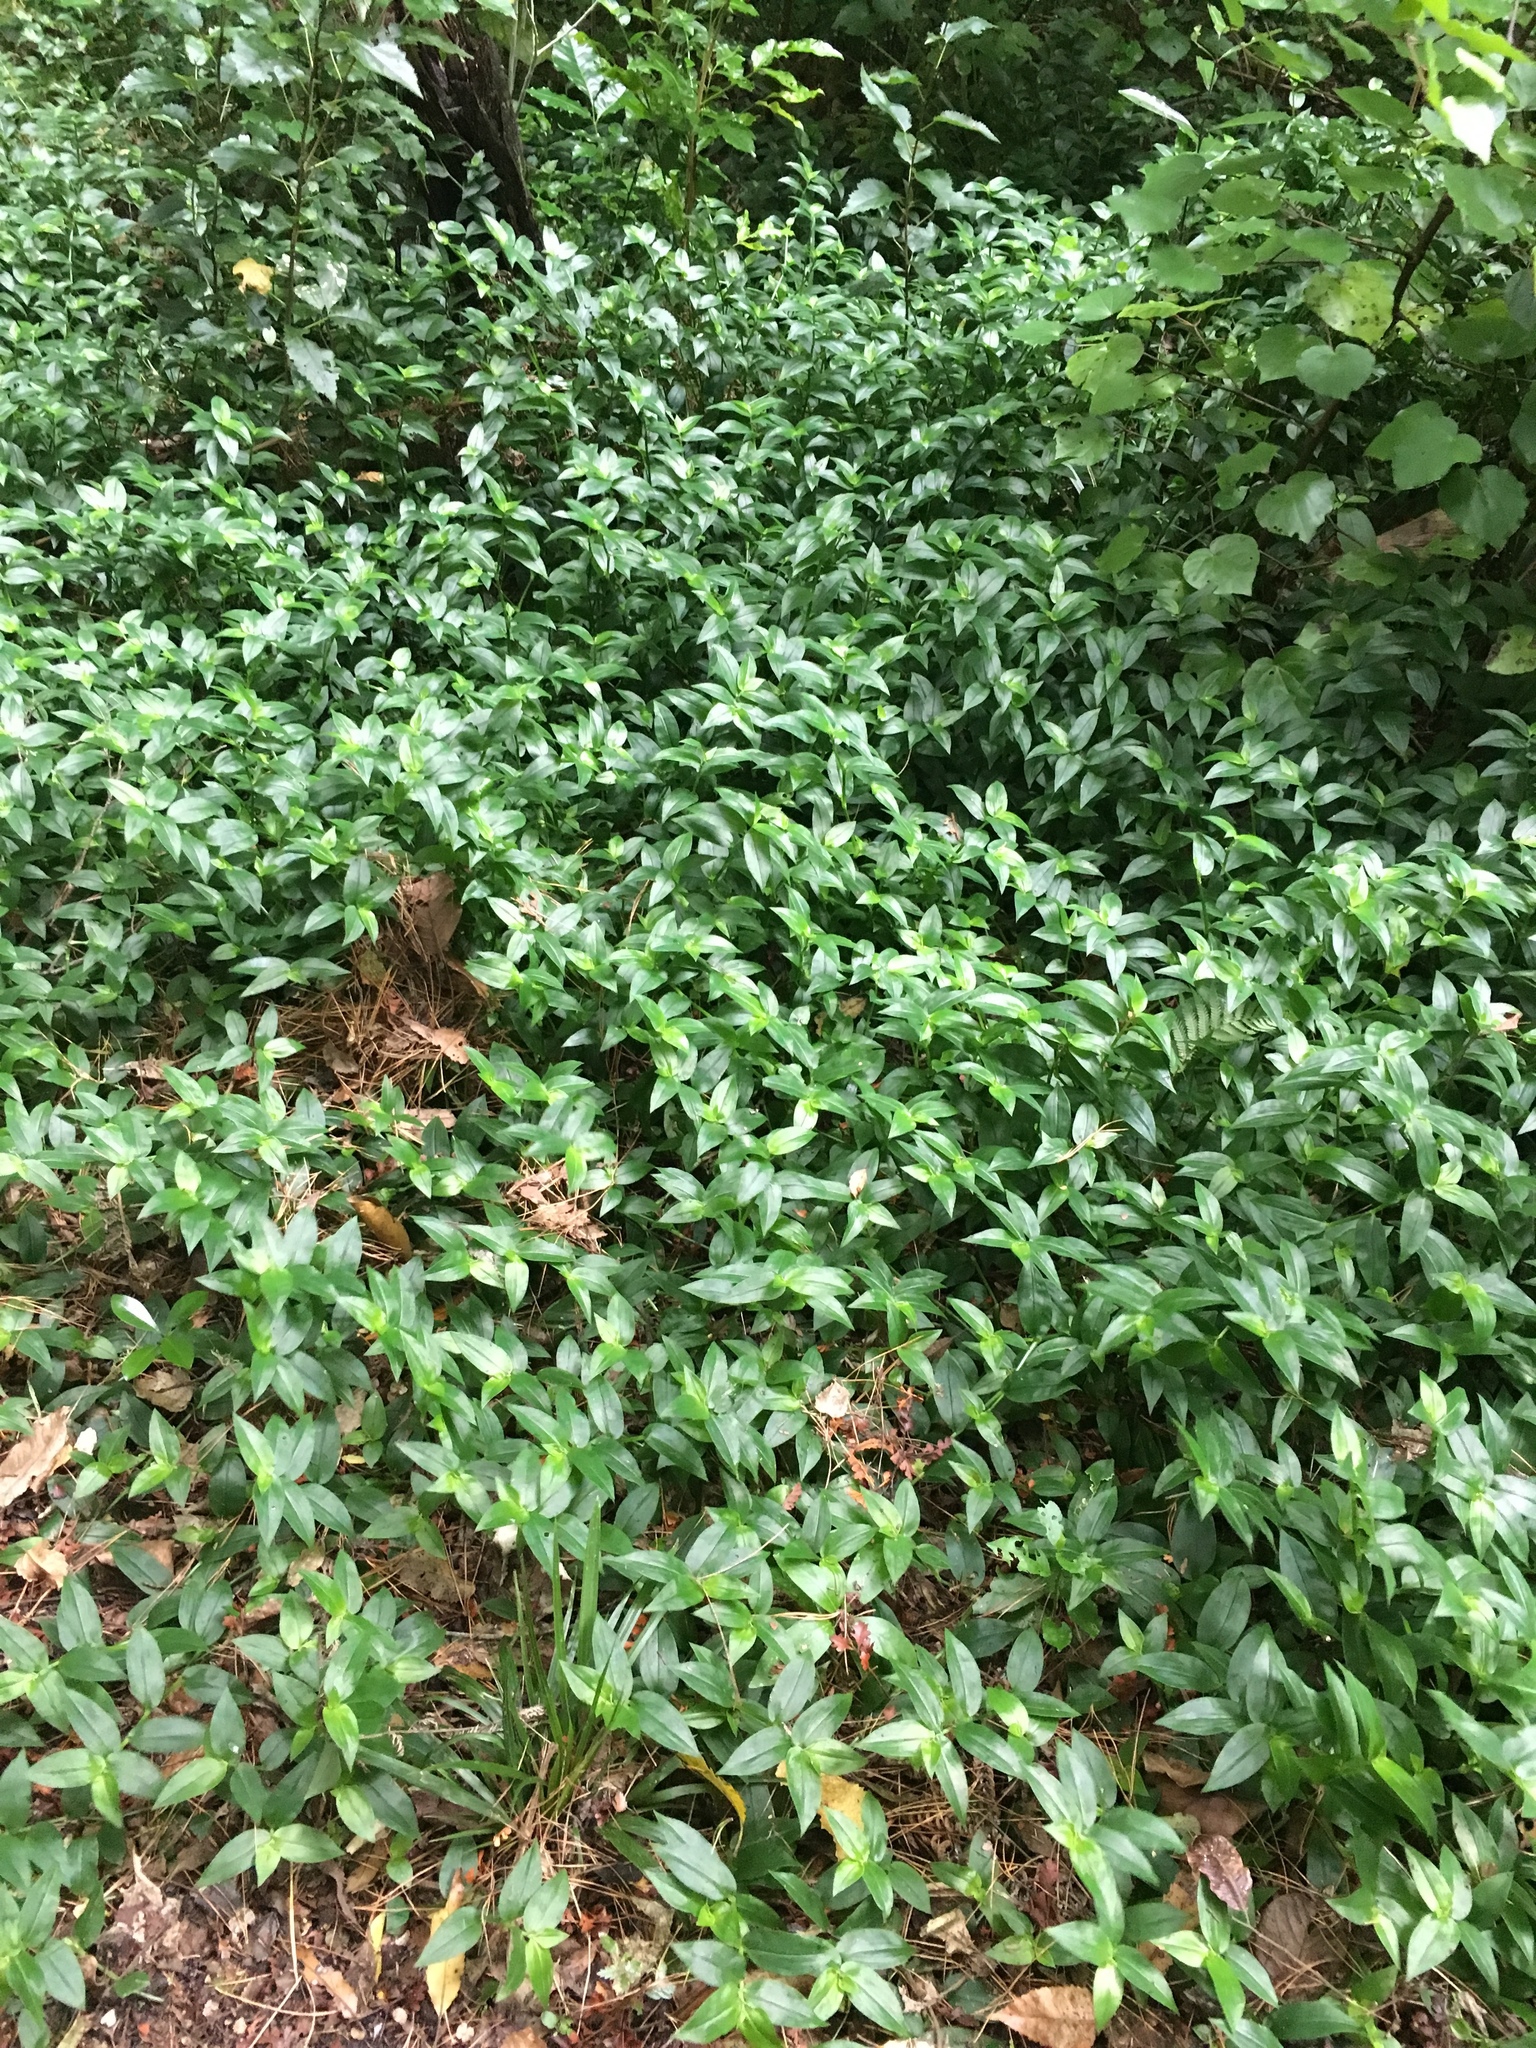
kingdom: Plantae
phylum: Tracheophyta
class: Liliopsida
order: Commelinales
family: Commelinaceae
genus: Tradescantia
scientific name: Tradescantia fluminensis
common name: Wandering-jew
